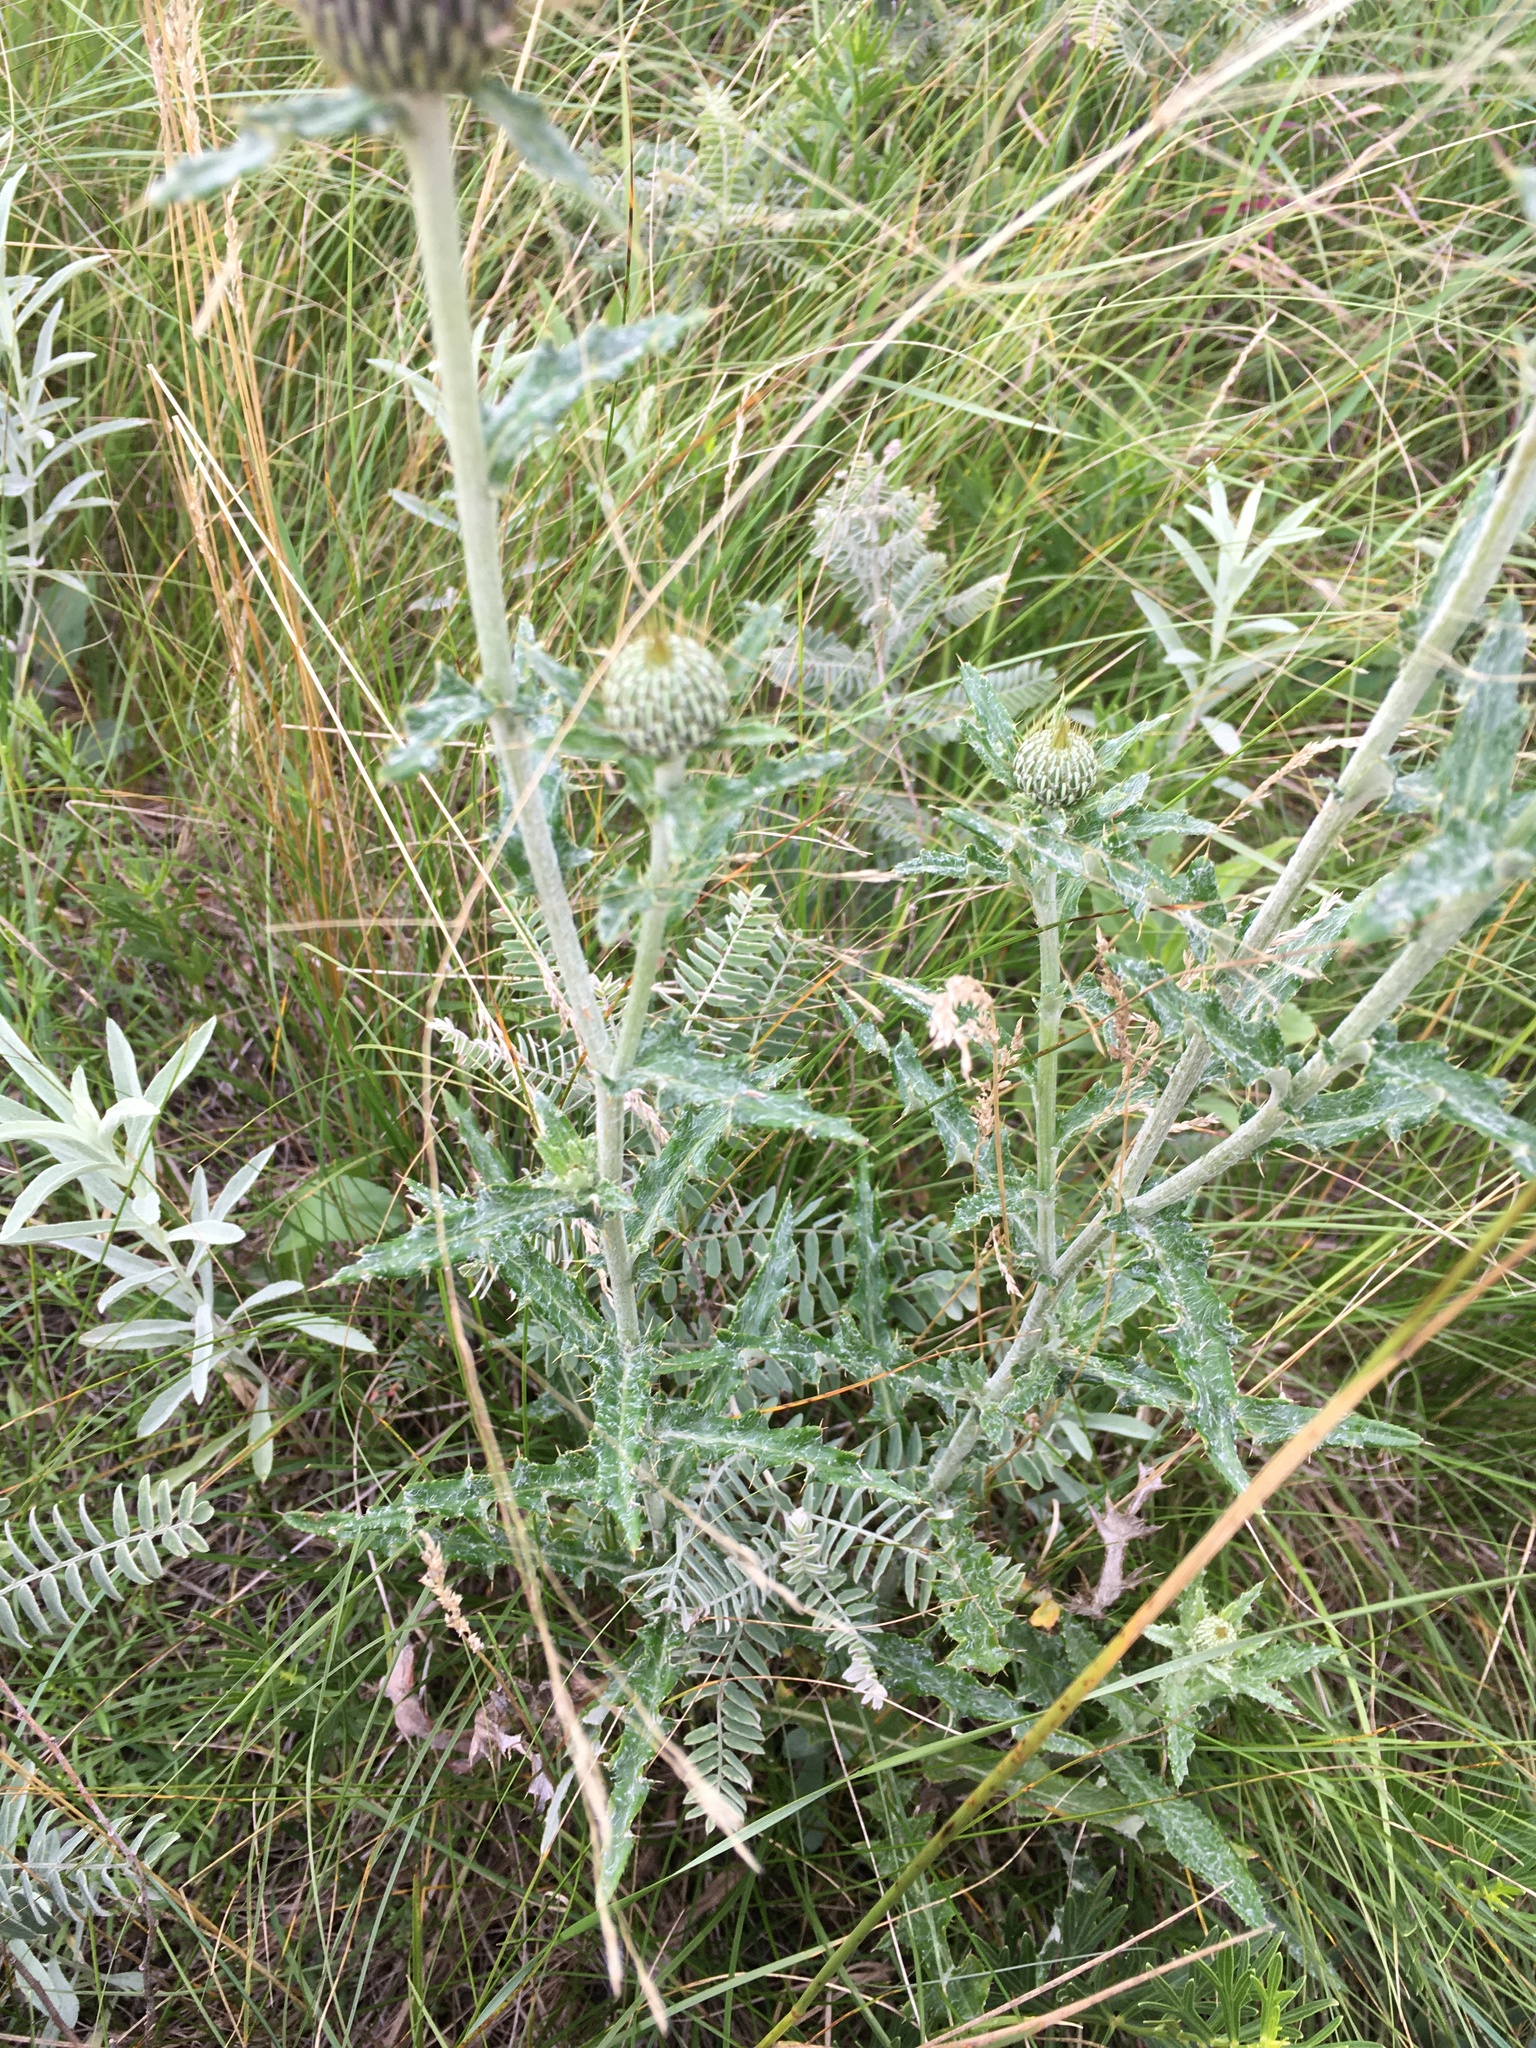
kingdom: Plantae
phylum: Tracheophyta
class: Magnoliopsida
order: Asterales
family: Asteraceae
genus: Cirsium
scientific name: Cirsium flodmanii
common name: Flodman's thistle
